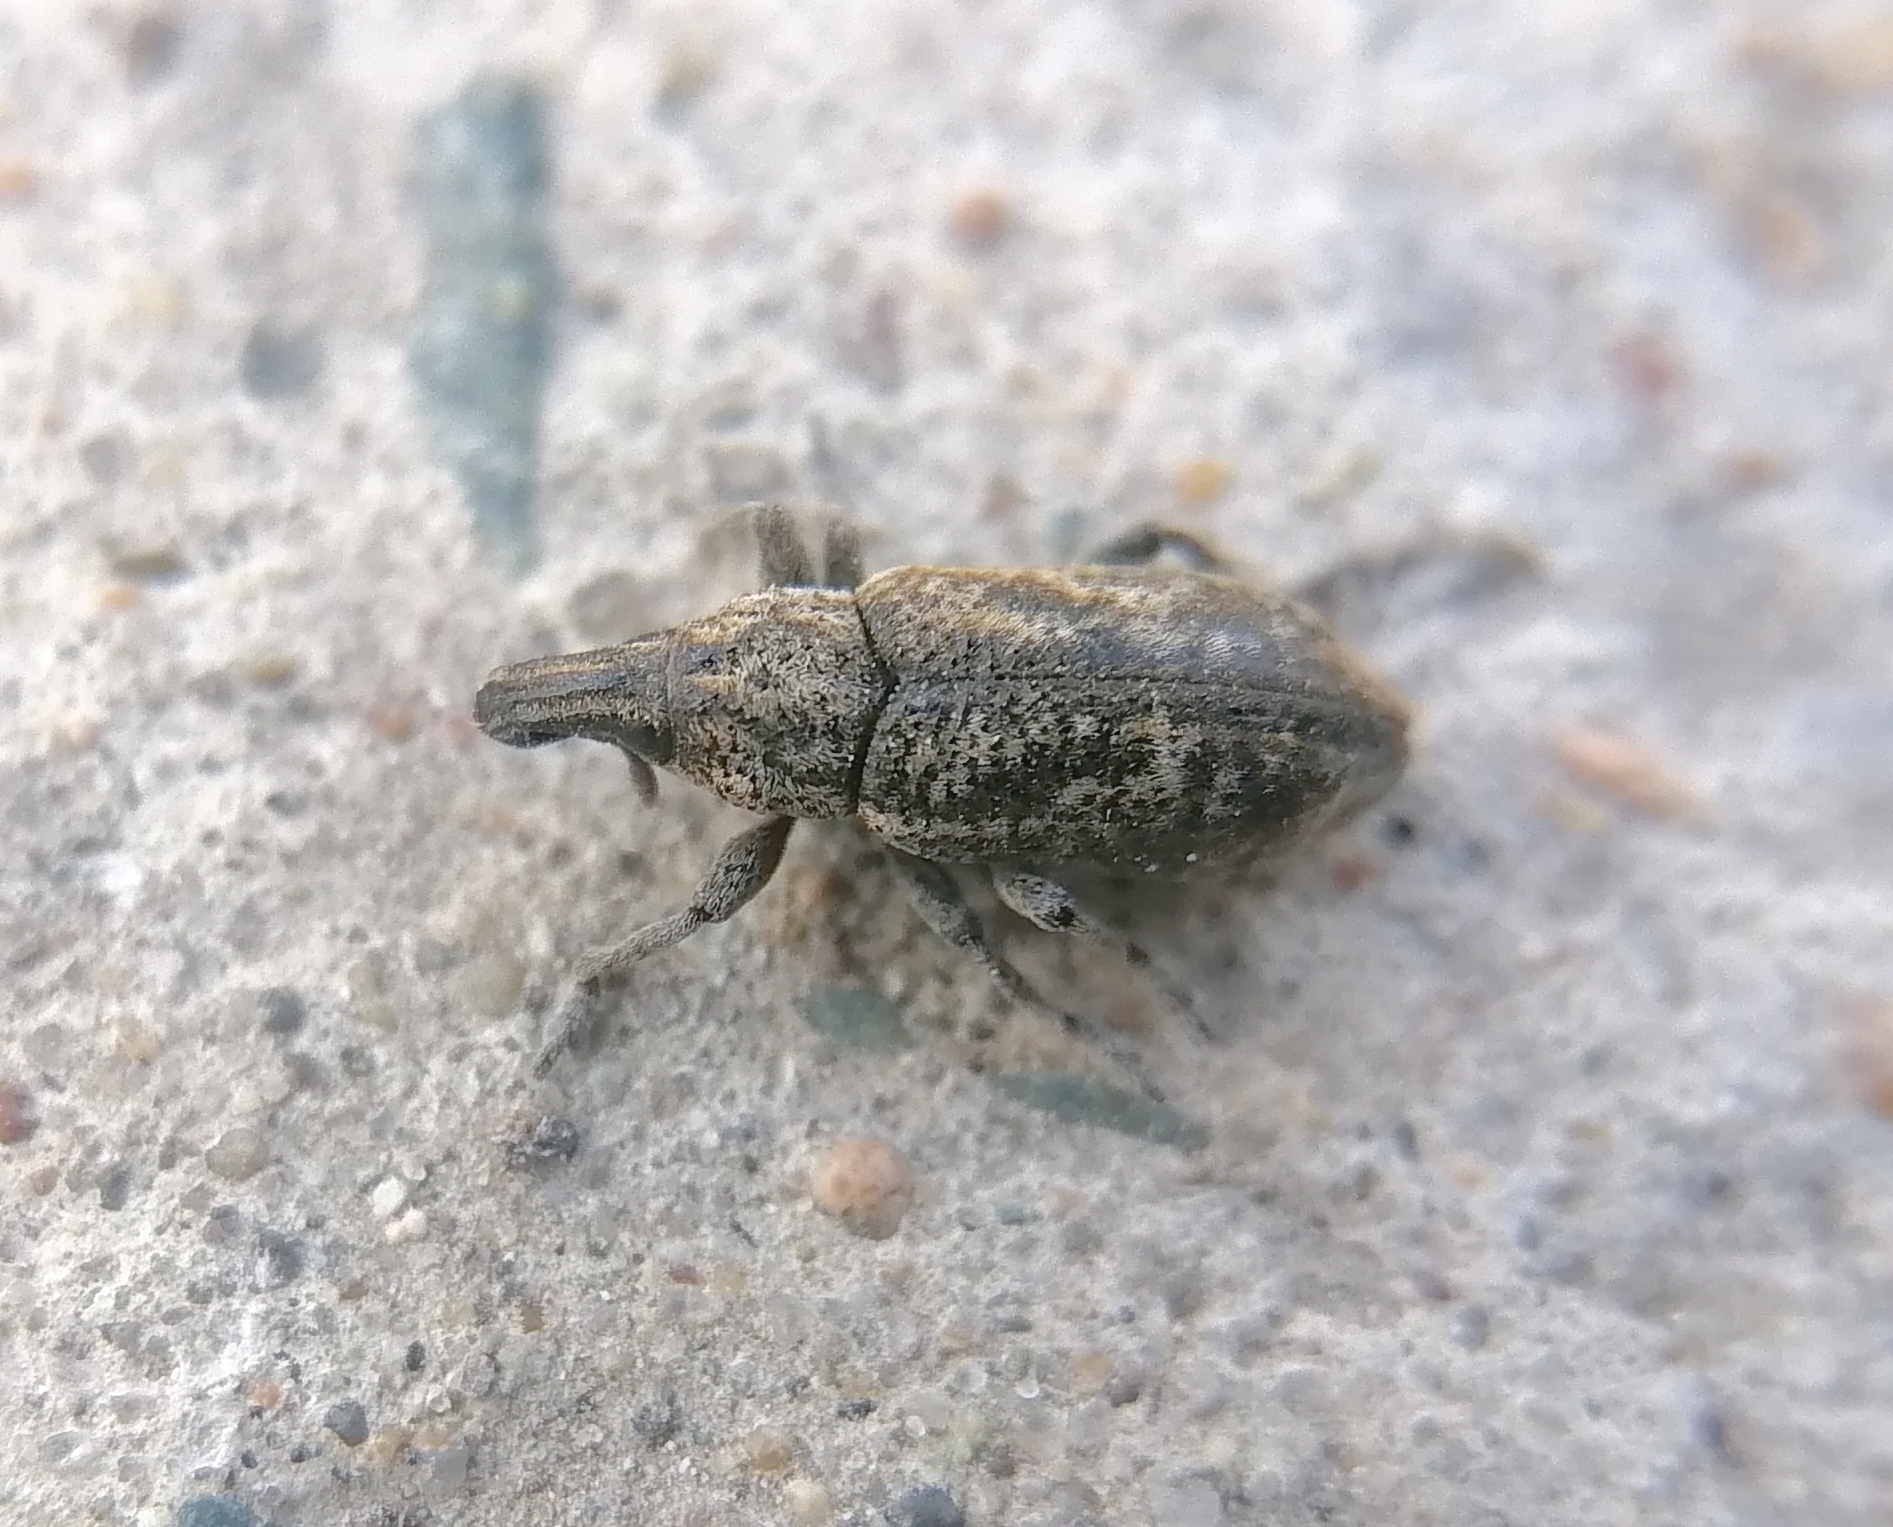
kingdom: Animalia
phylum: Arthropoda
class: Insecta
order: Coleoptera
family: Curculionidae
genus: Cleonis
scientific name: Cleonis pigra
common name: Large thistle weevil
